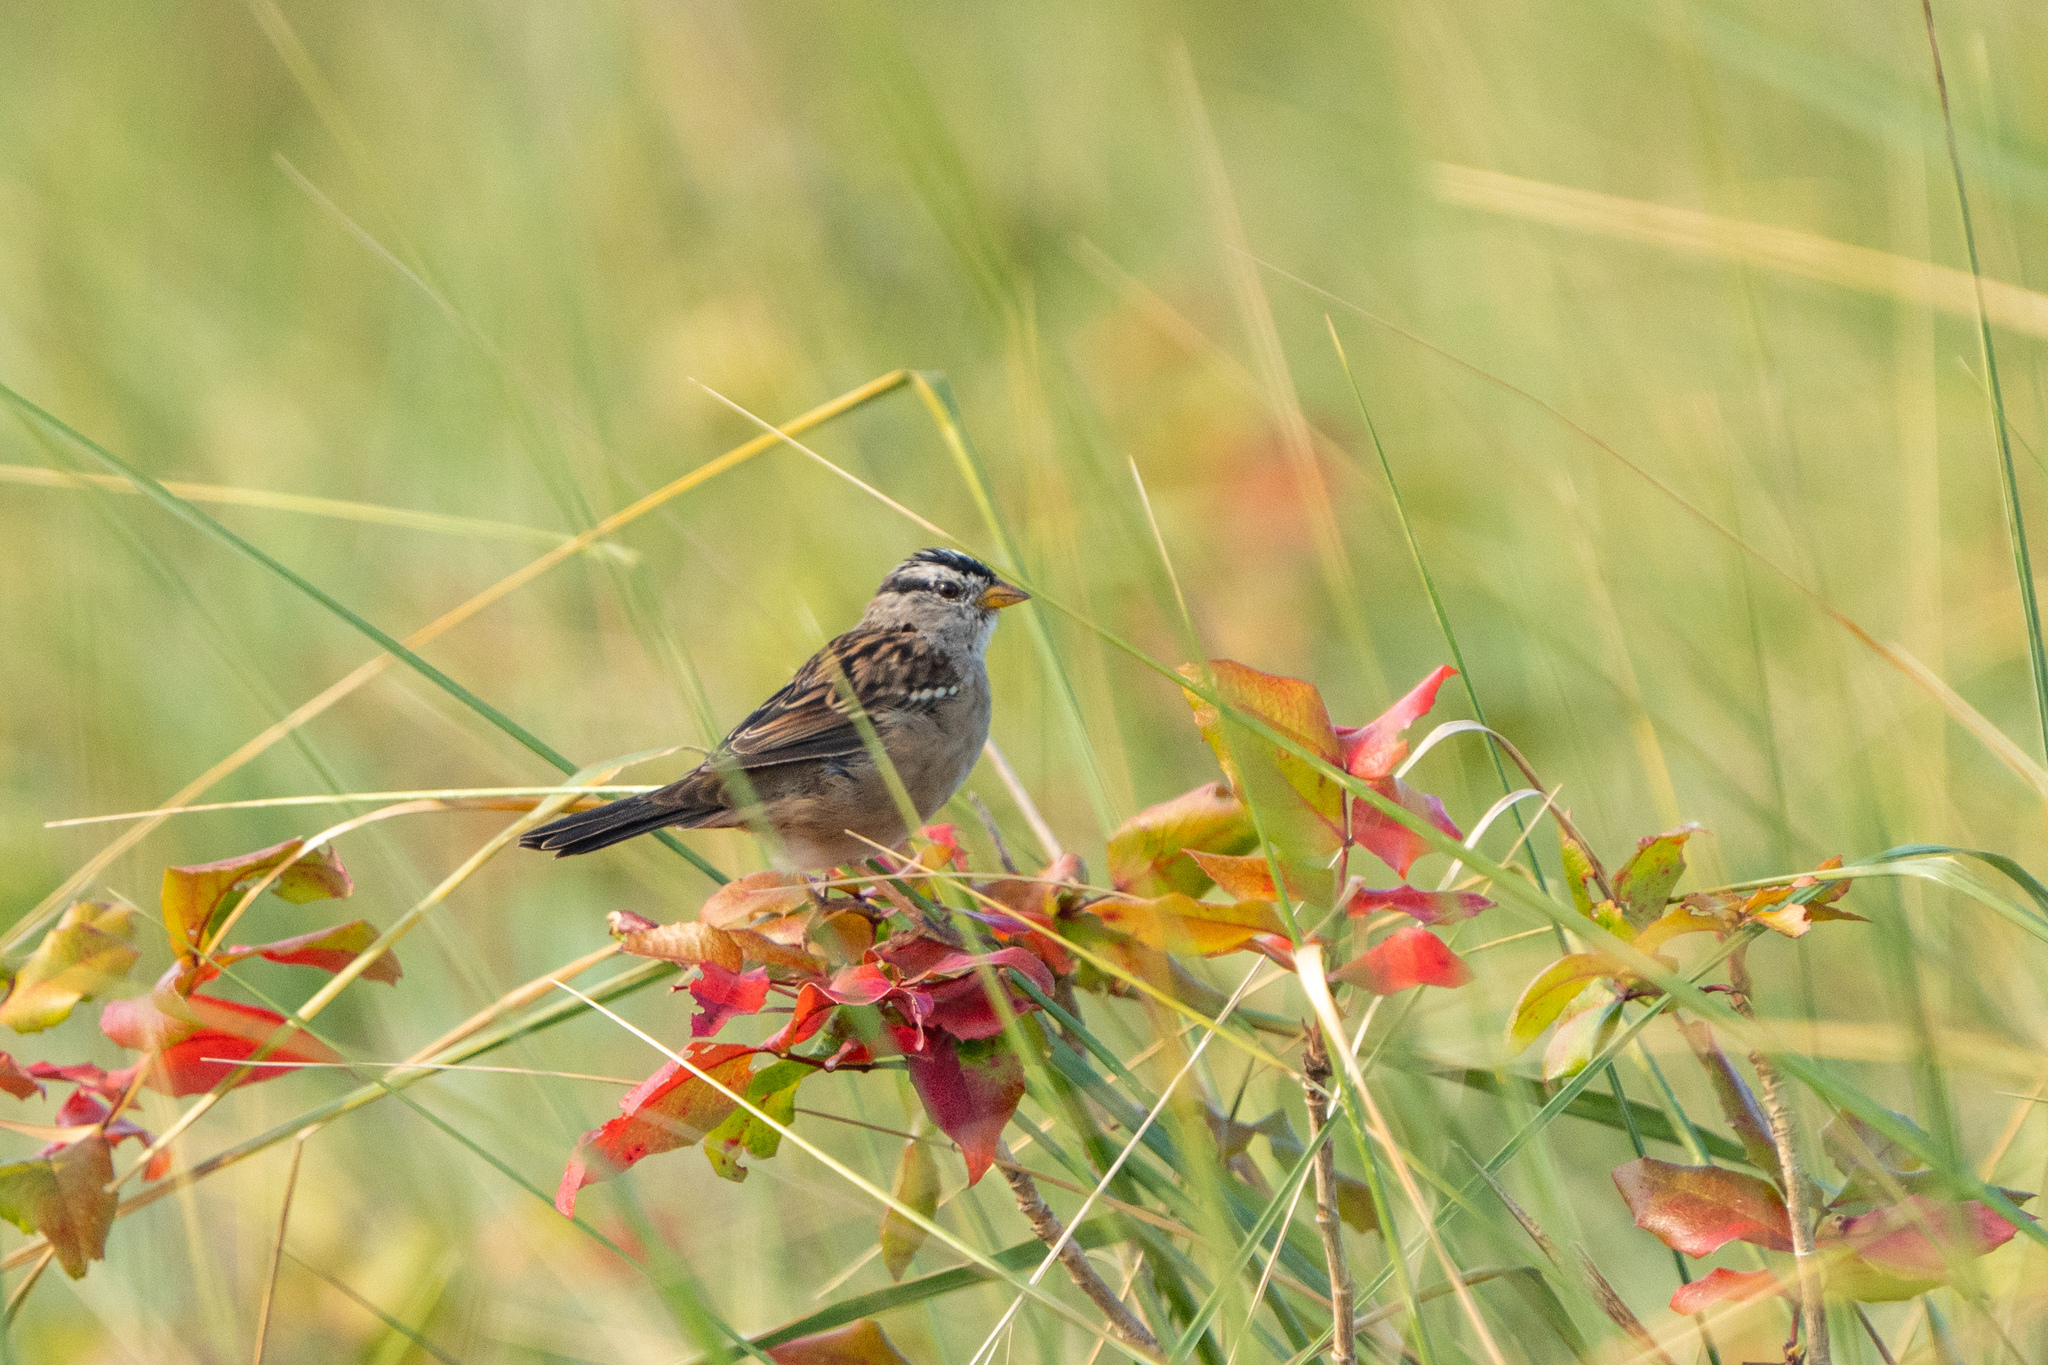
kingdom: Animalia
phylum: Chordata
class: Aves
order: Passeriformes
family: Passerellidae
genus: Zonotrichia
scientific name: Zonotrichia leucophrys
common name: White-crowned sparrow
